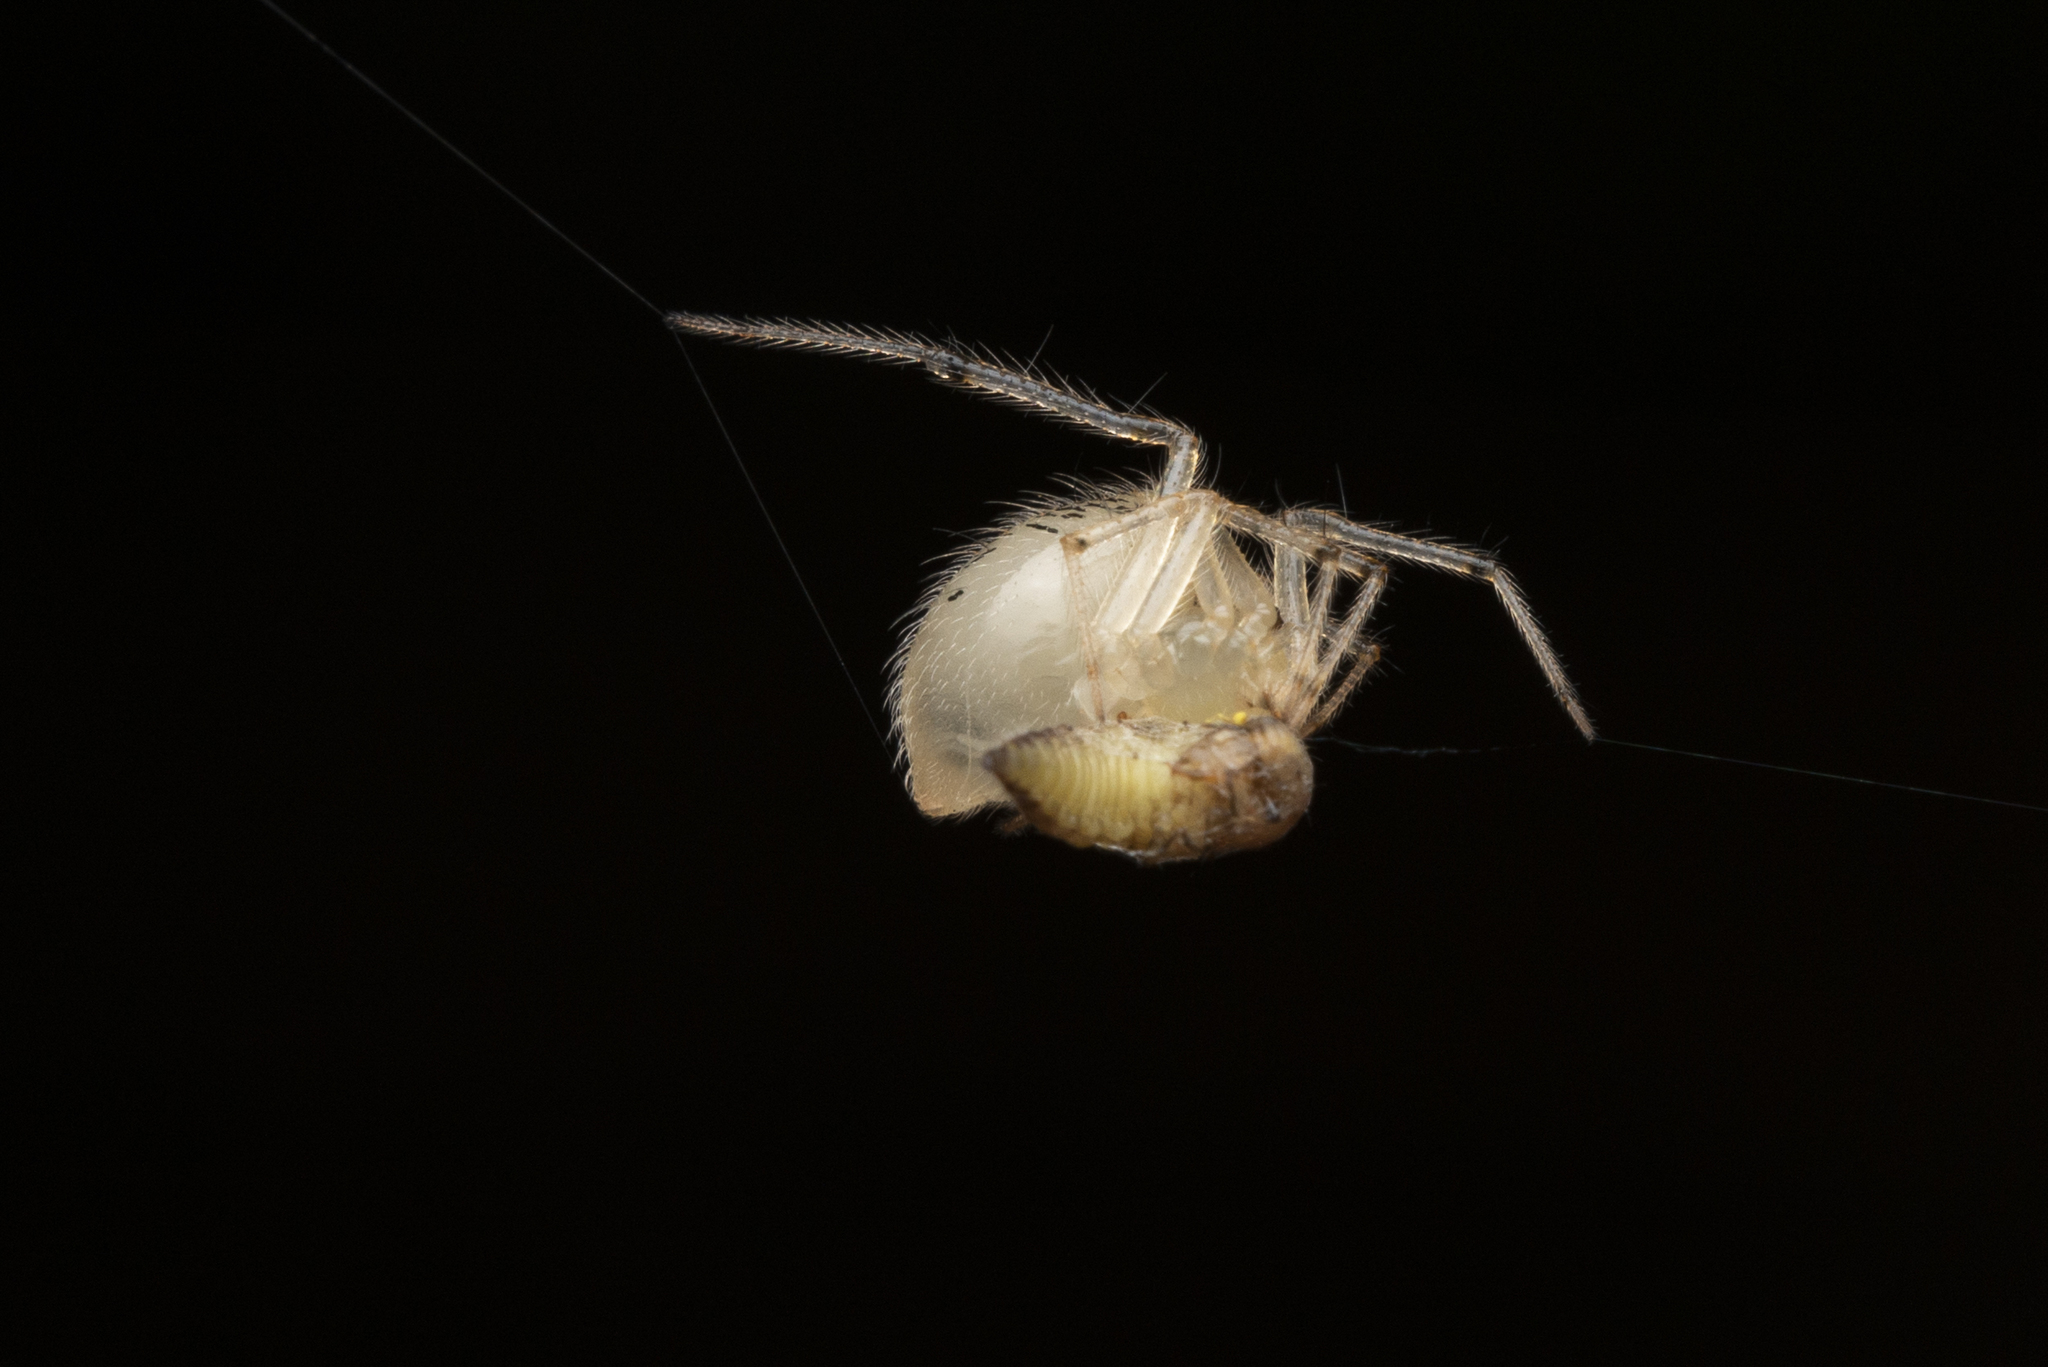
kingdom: Animalia
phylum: Arthropoda
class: Arachnida
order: Araneae
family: Theridiidae
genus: Phycosoma
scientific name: Phycosoma digitula
